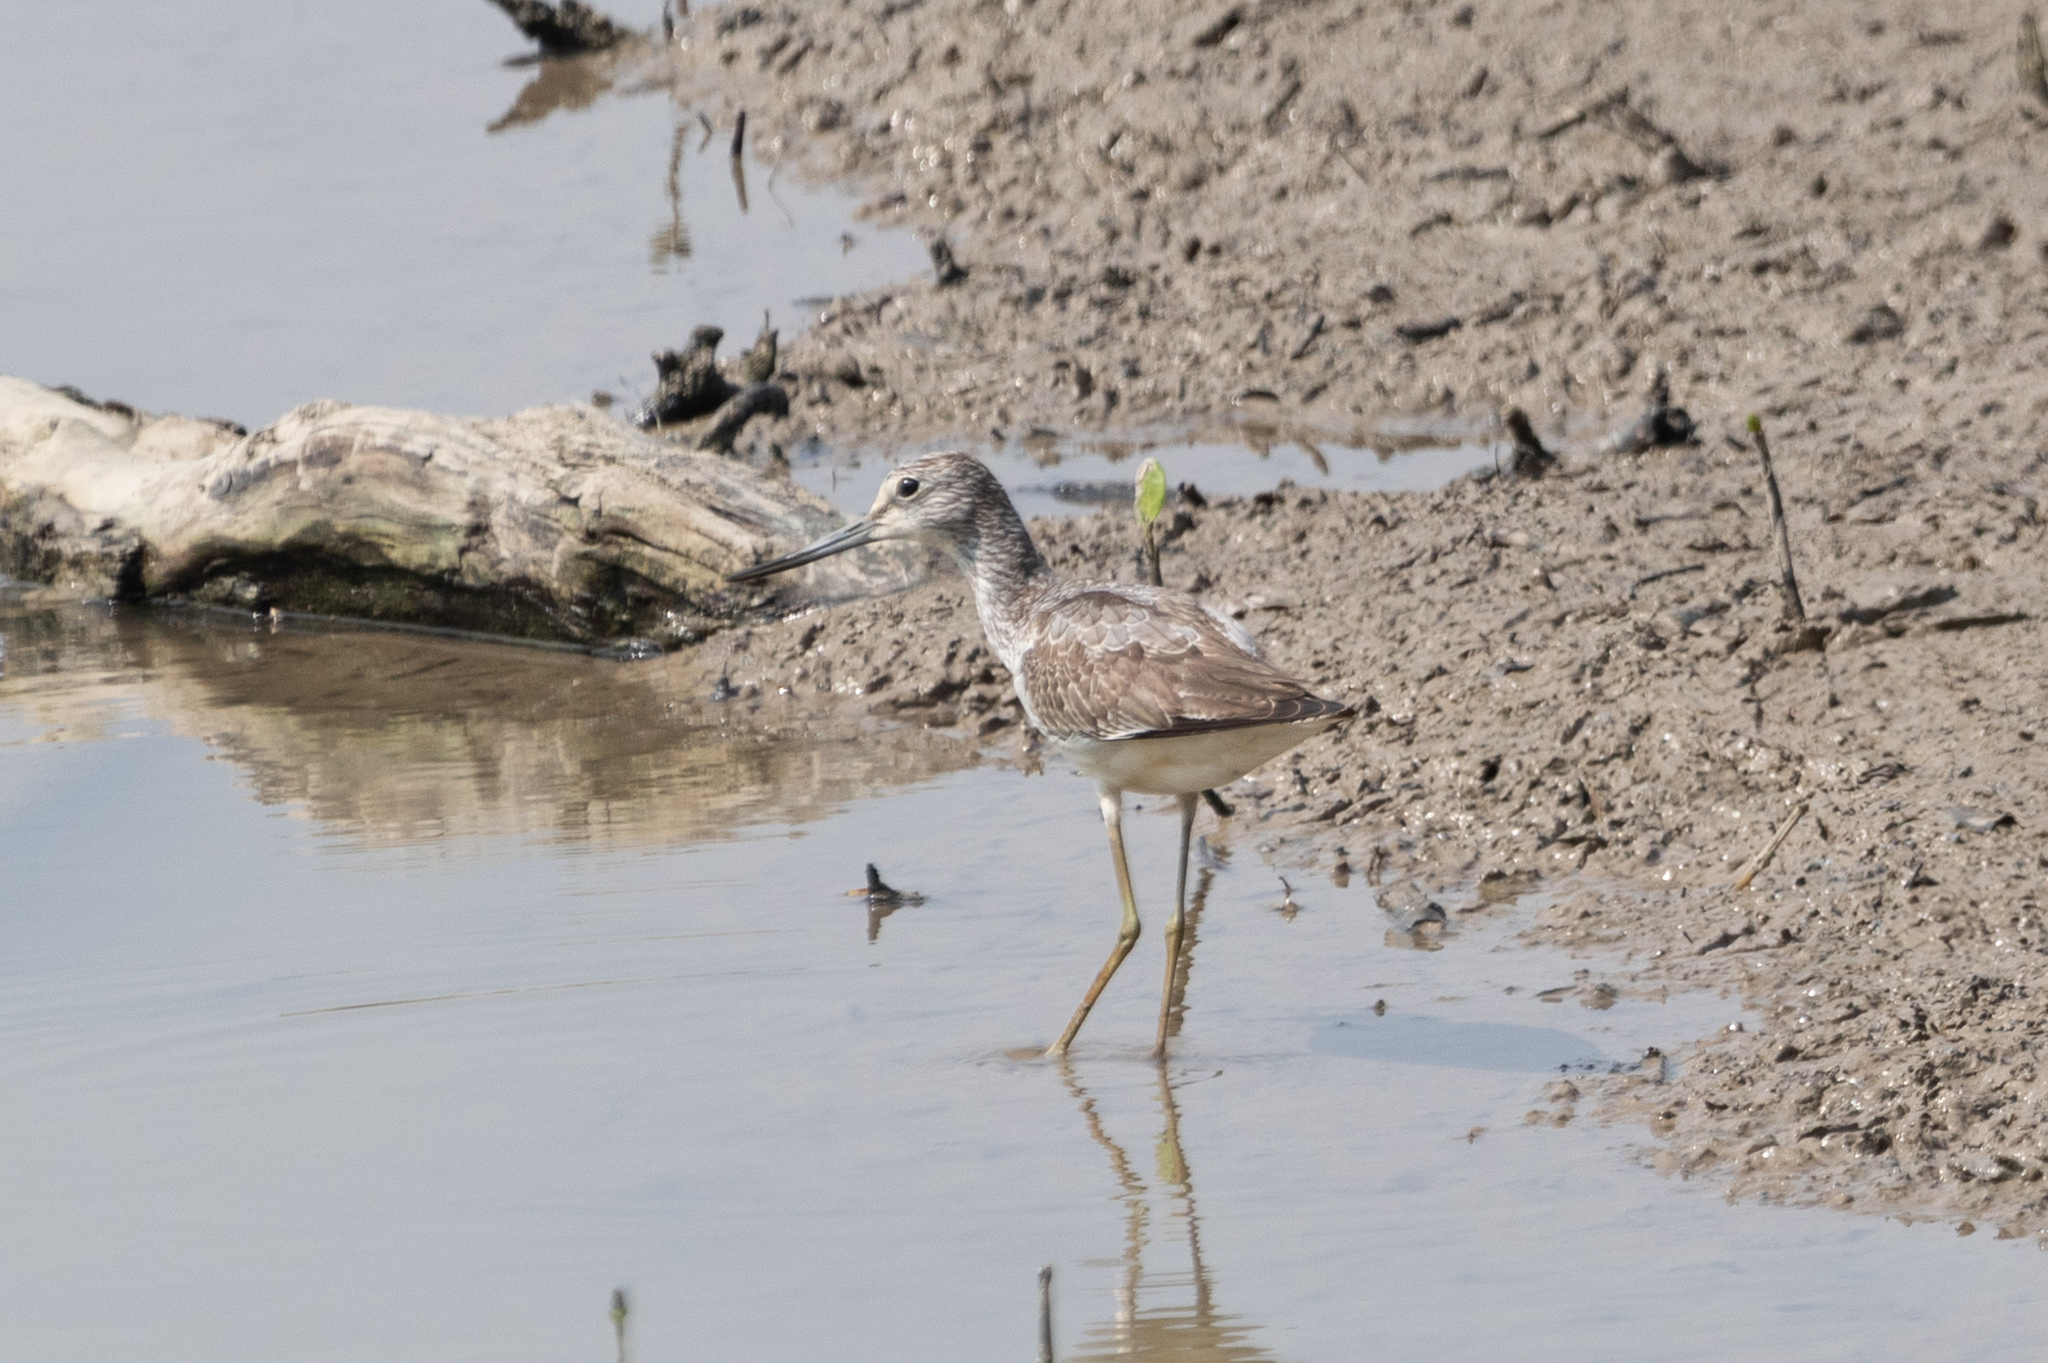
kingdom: Animalia
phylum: Chordata
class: Aves
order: Charadriiformes
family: Scolopacidae
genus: Tringa
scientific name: Tringa nebularia
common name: Common greenshank
